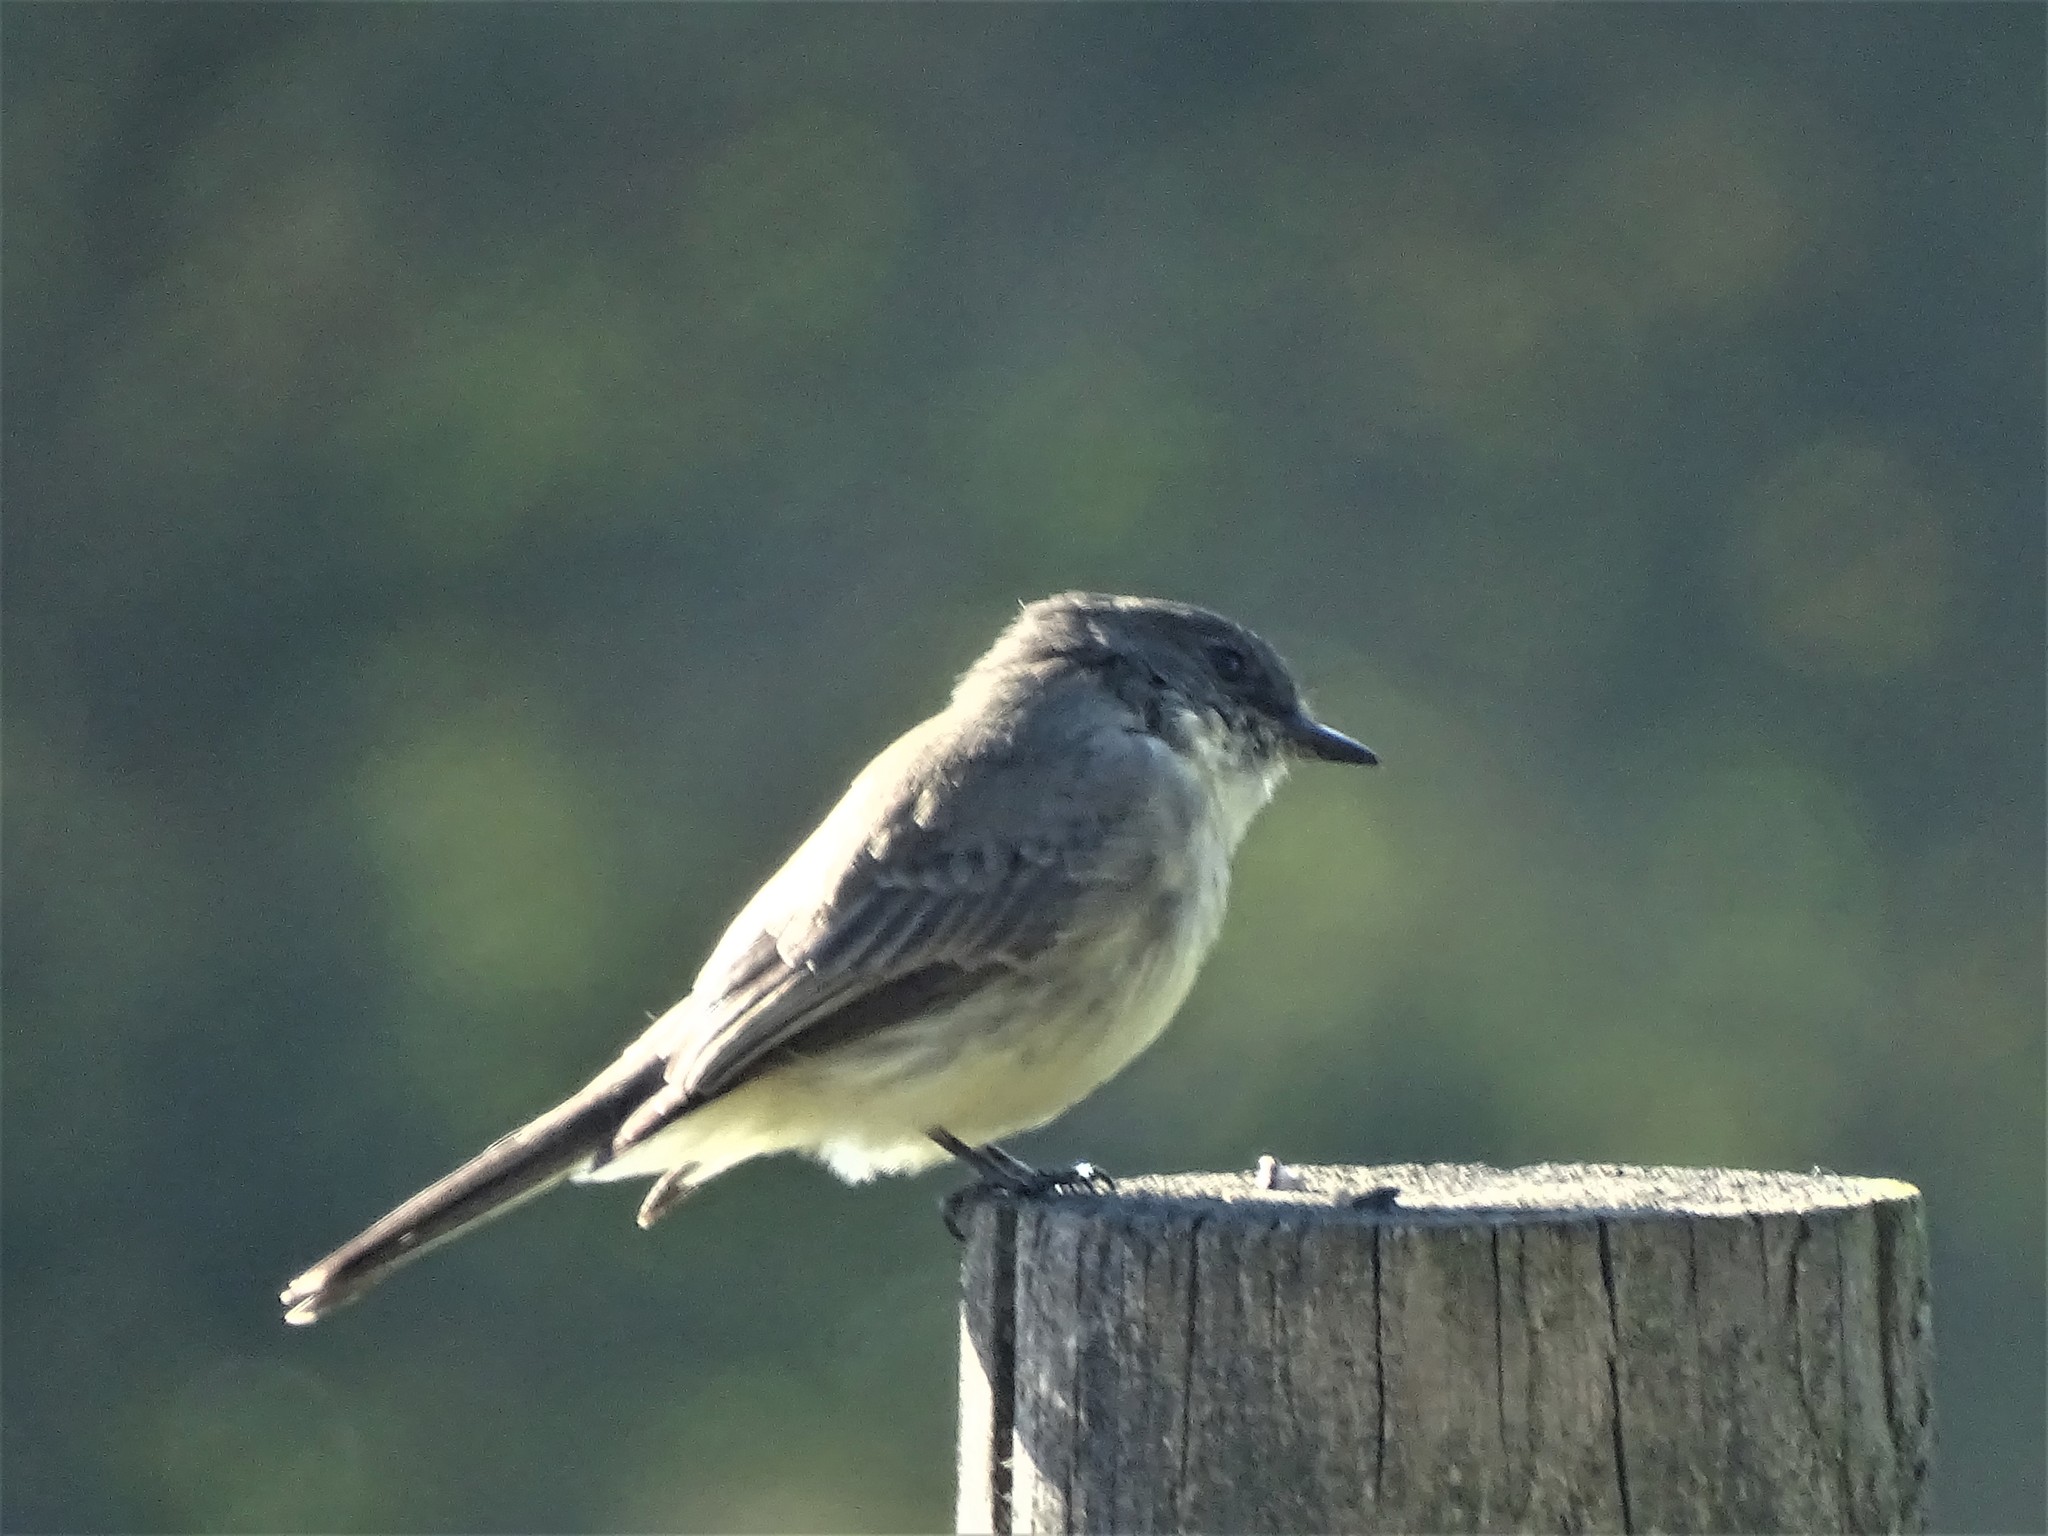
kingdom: Animalia
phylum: Chordata
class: Aves
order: Passeriformes
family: Tyrannidae
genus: Sayornis
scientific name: Sayornis phoebe
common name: Eastern phoebe
